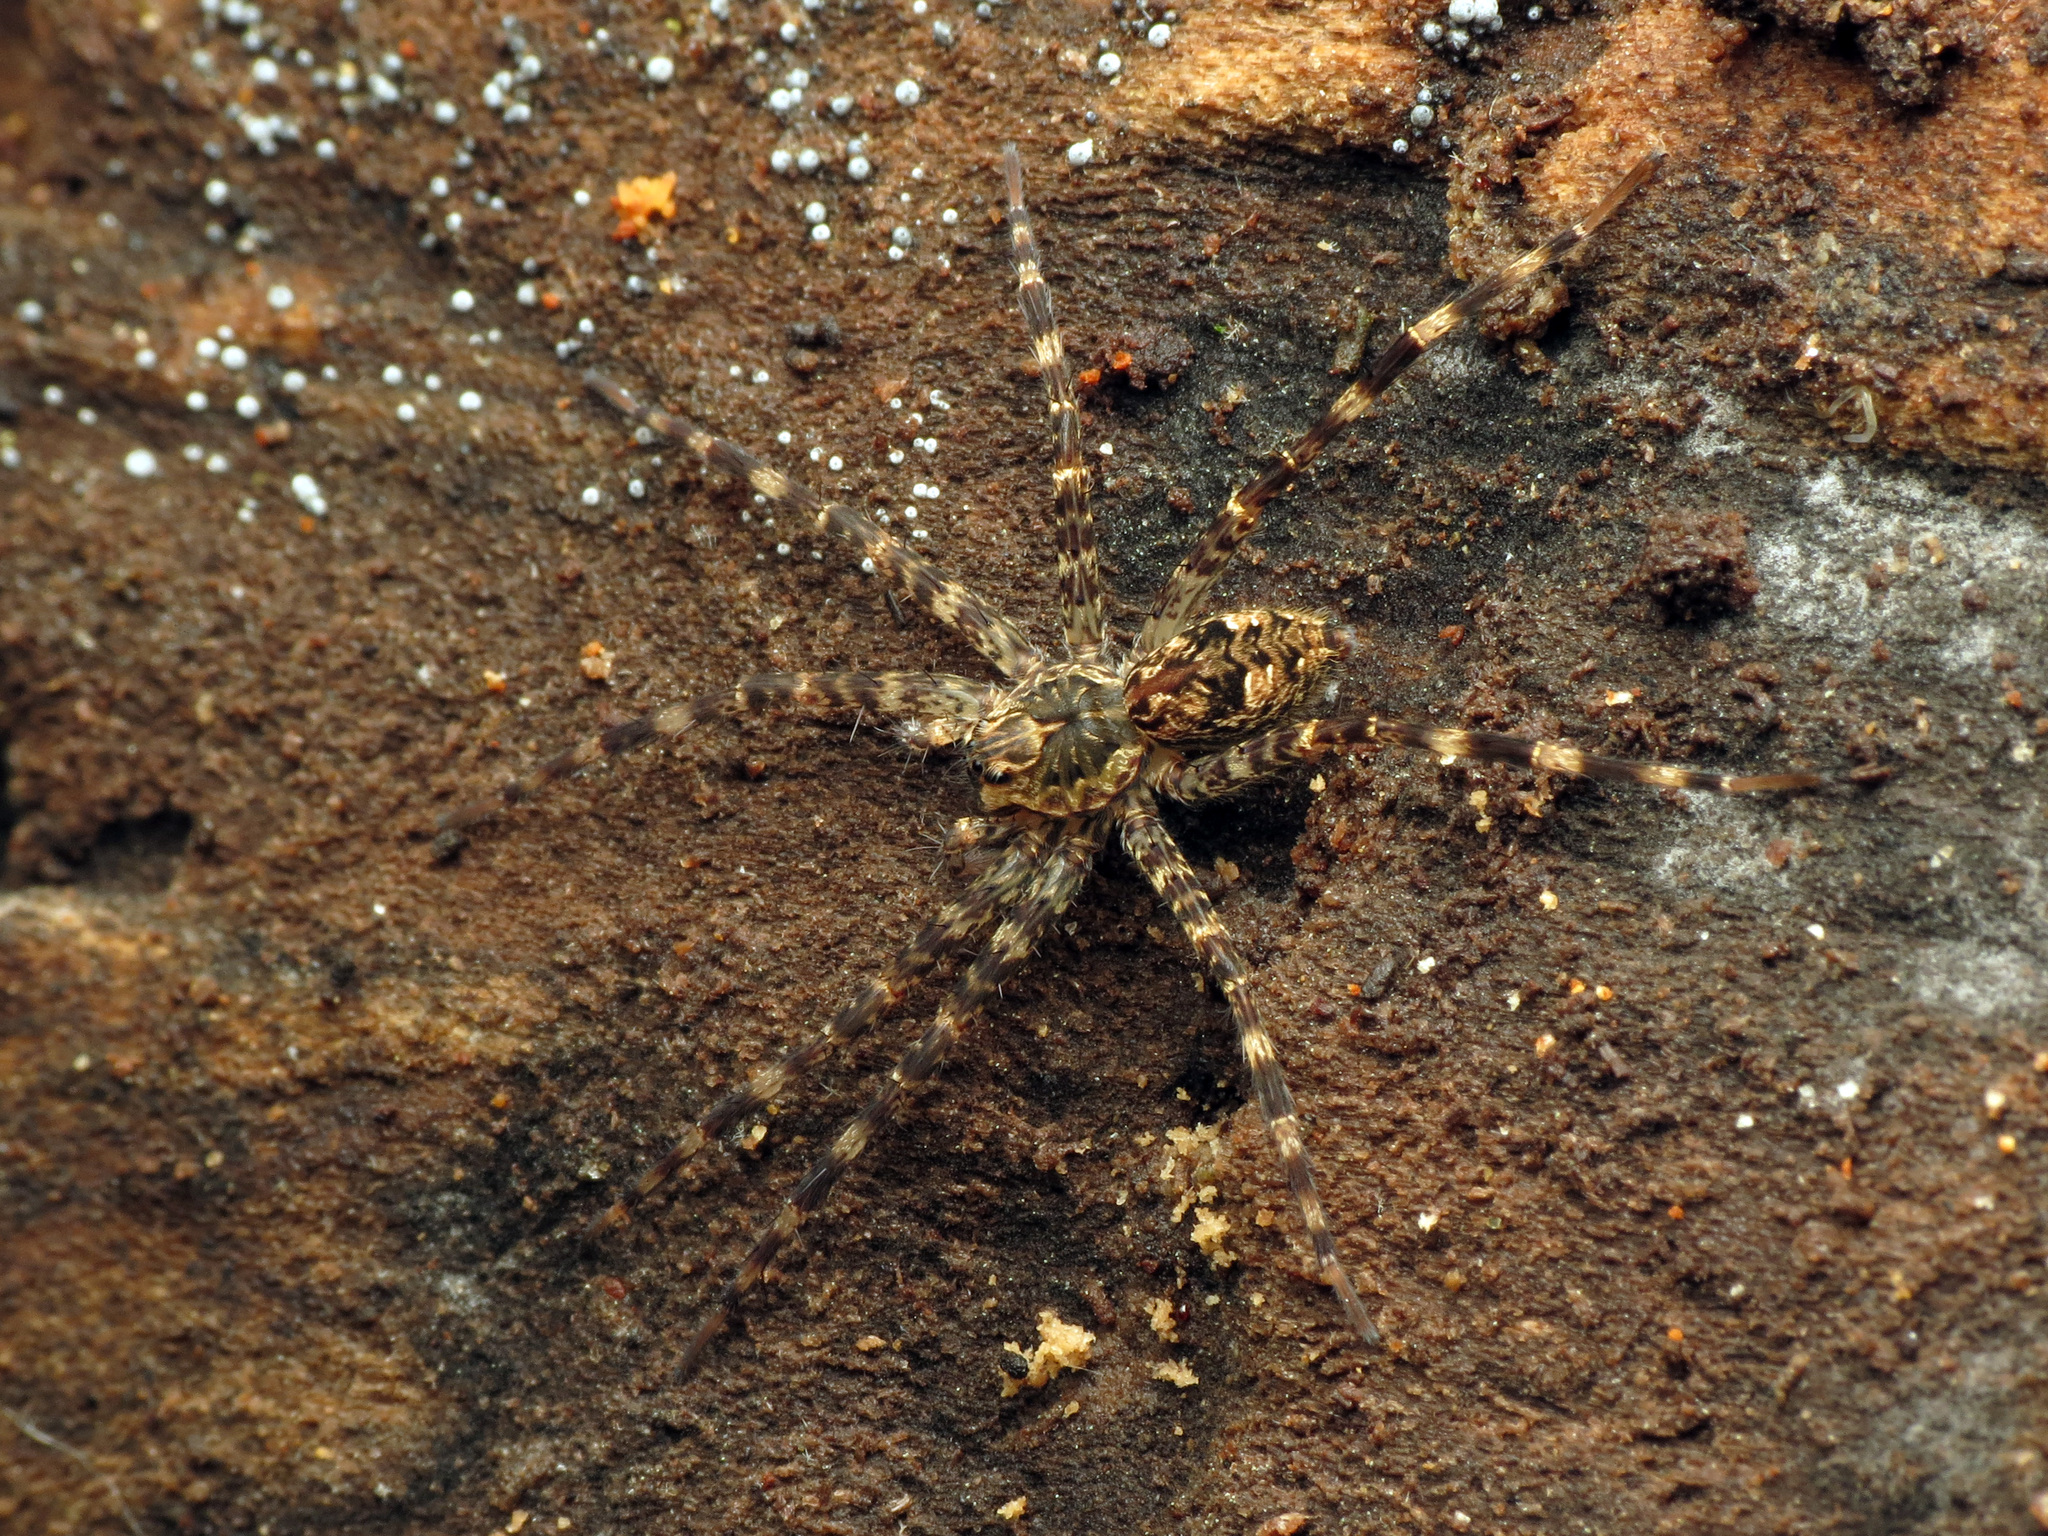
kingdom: Animalia
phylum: Arthropoda
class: Arachnida
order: Araneae
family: Pisauridae
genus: Dolomedes
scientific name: Dolomedes tenebrosus
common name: Dark fishing spider
